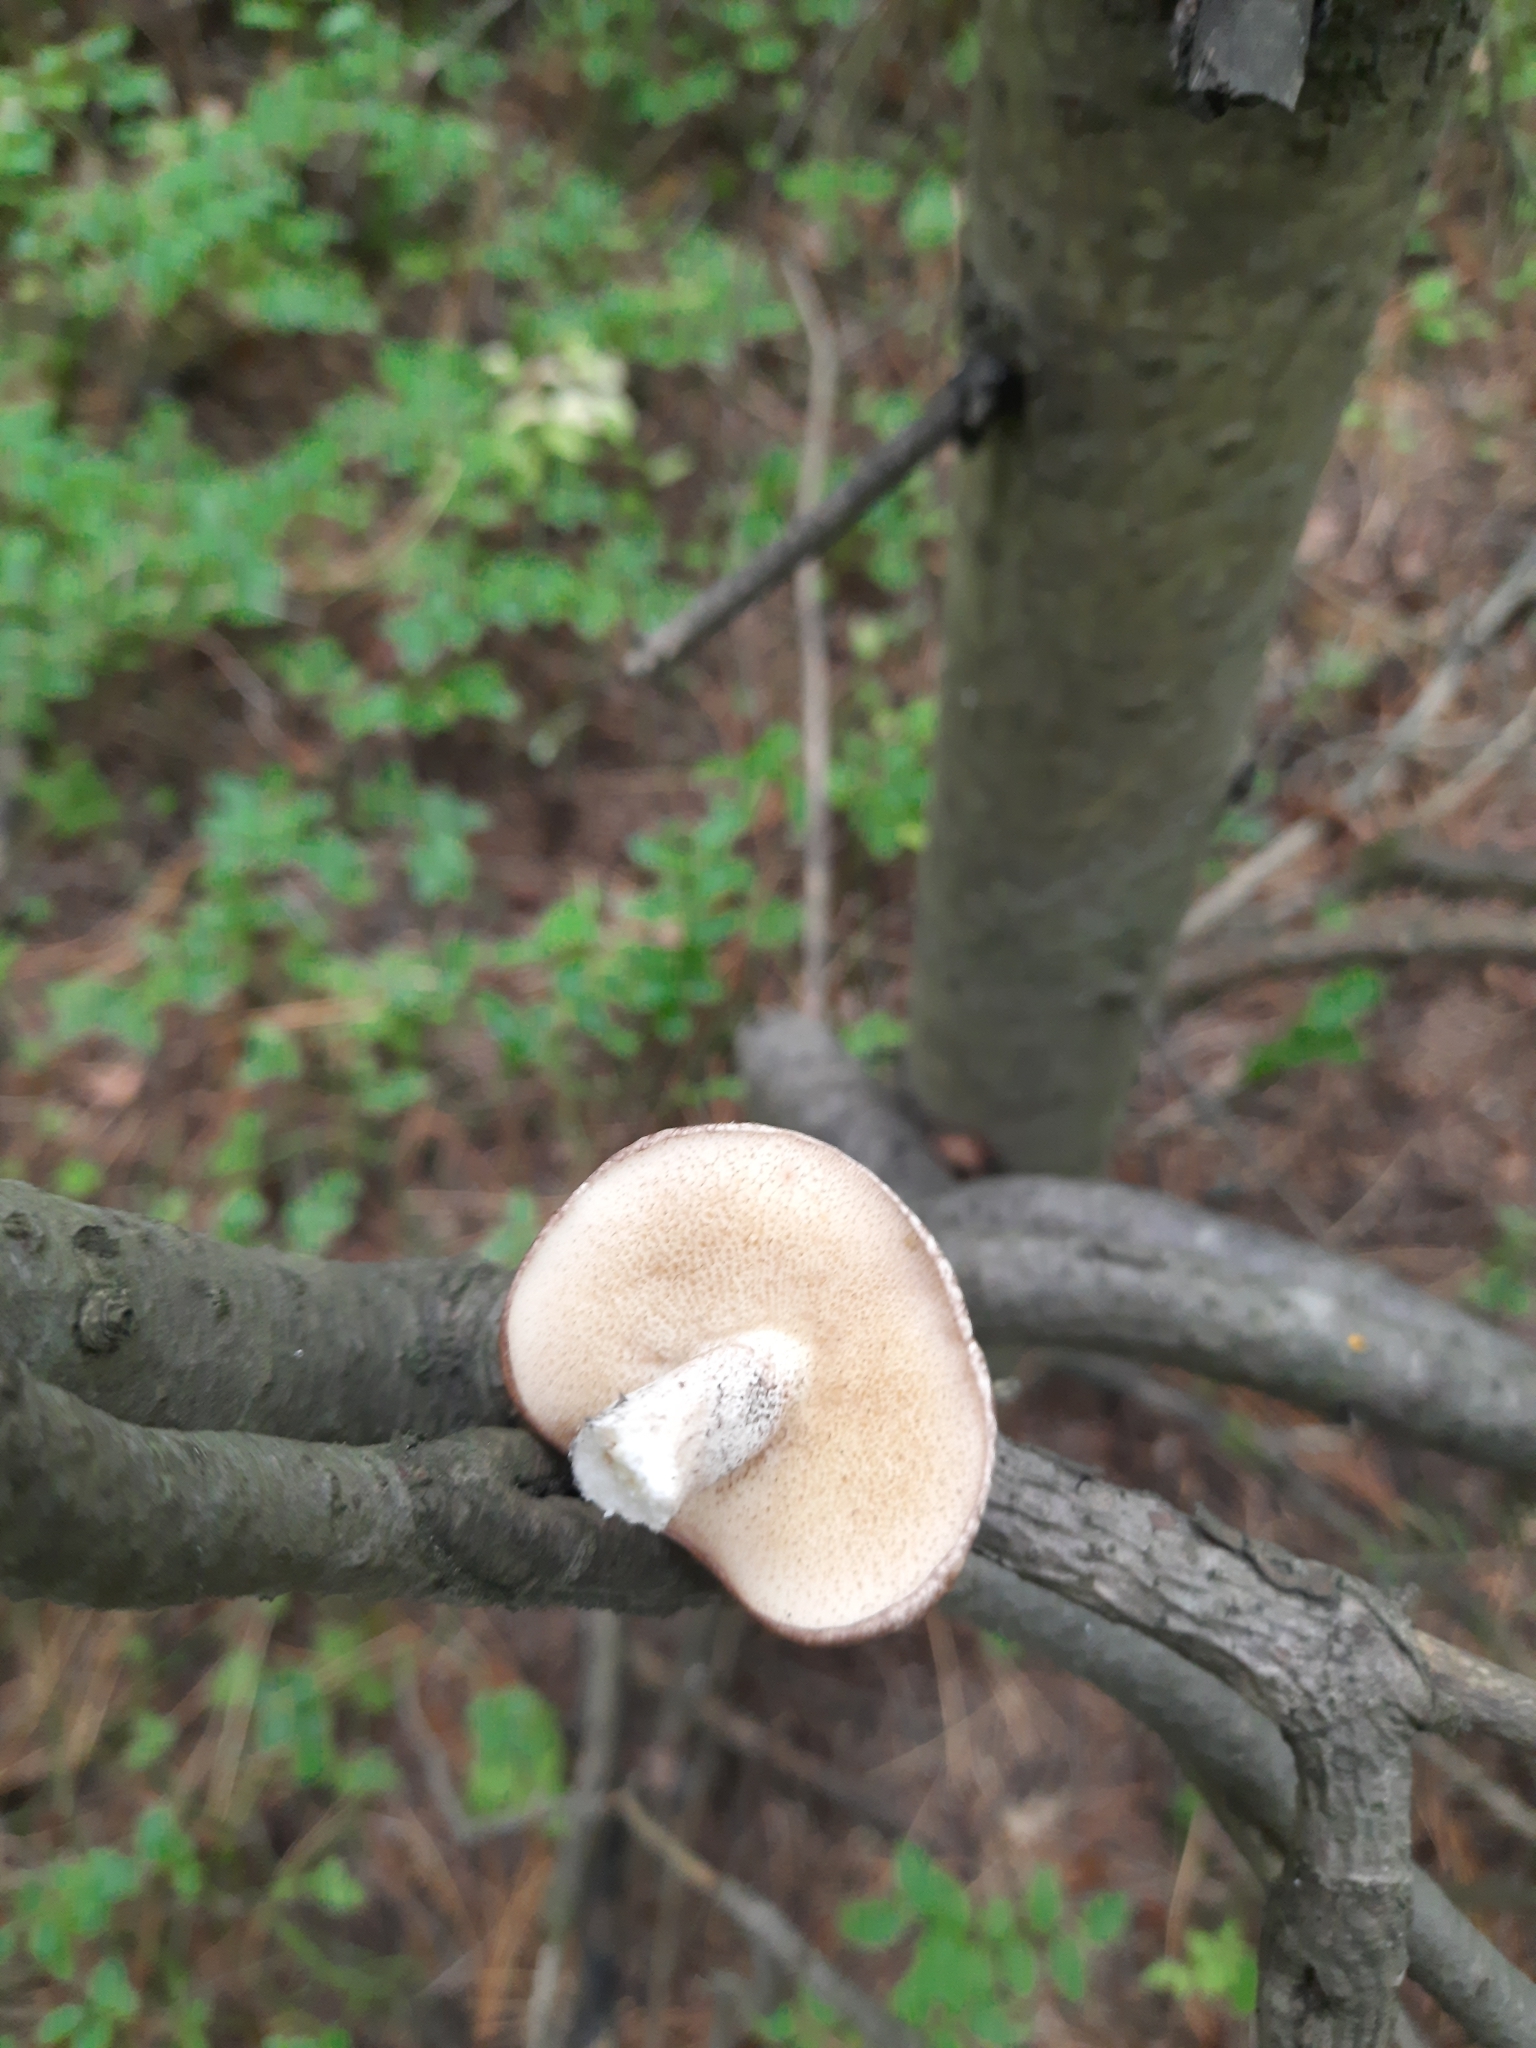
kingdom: Fungi
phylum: Basidiomycota
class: Agaricomycetes
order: Boletales
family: Suillaceae
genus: Suillus
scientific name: Suillus placidus
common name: Slippery white bolete
